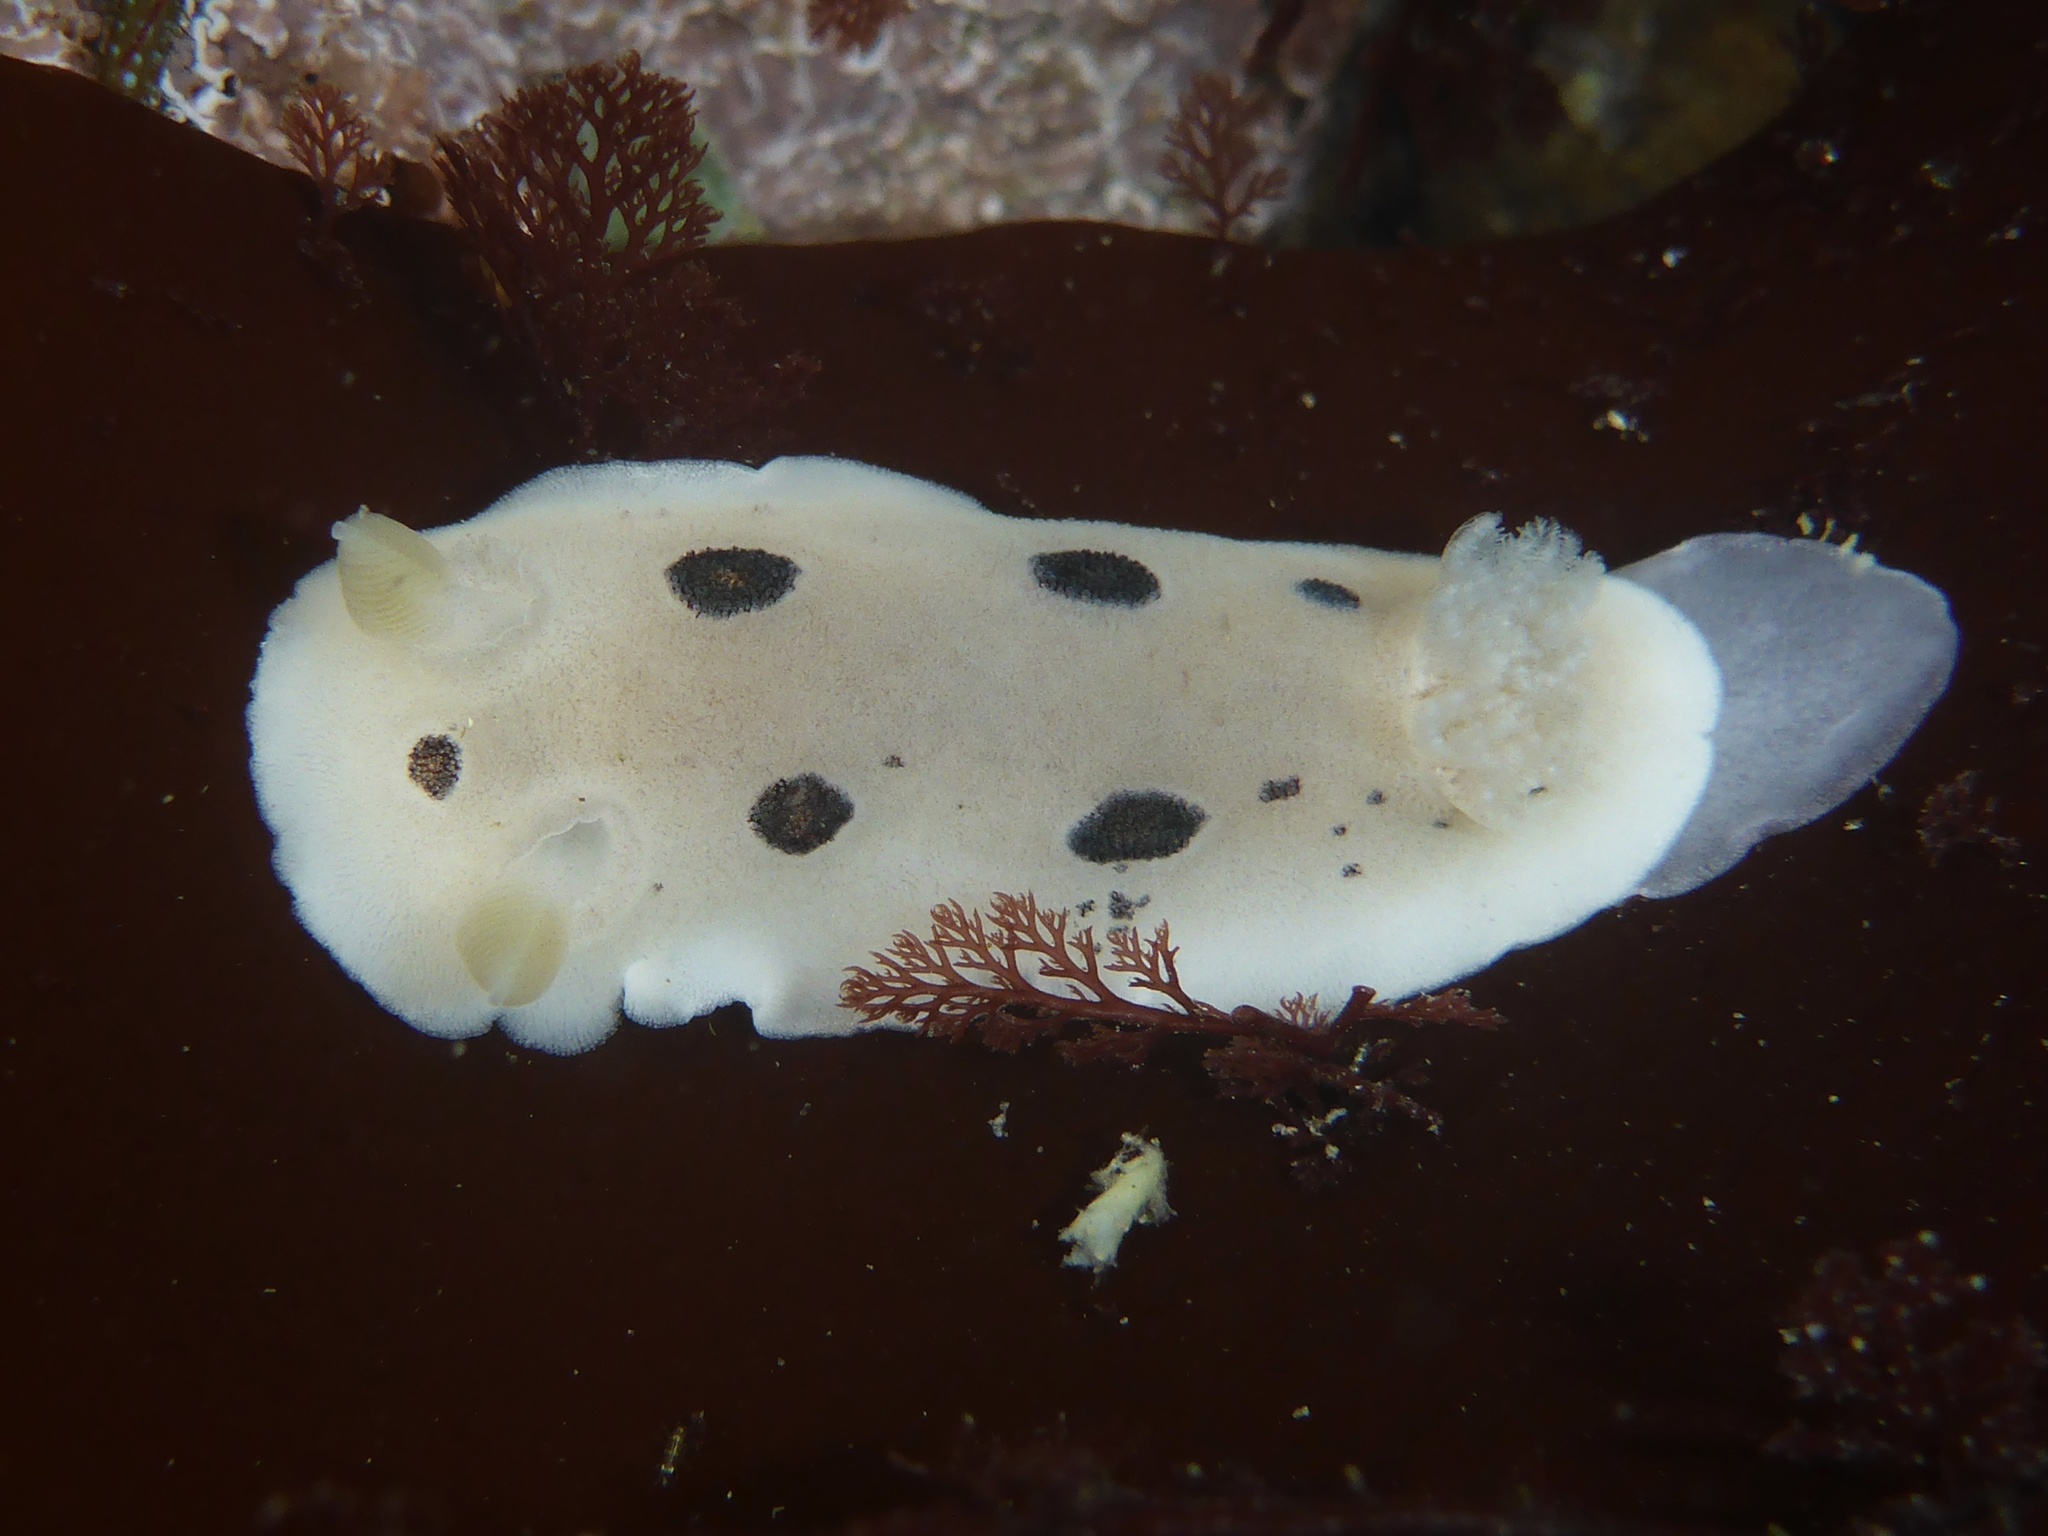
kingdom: Animalia
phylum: Mollusca
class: Gastropoda
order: Nudibranchia
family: Discodorididae
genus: Diaulula
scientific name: Diaulula sandiegensis
